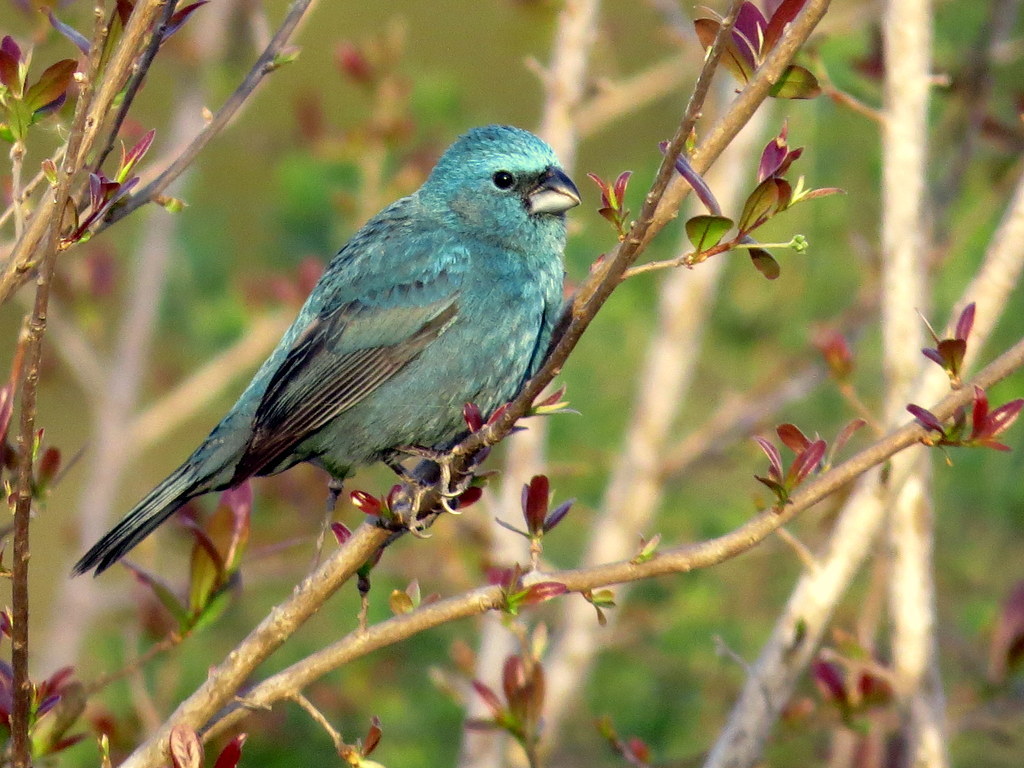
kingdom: Animalia
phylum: Chordata
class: Aves
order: Passeriformes
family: Cardinalidae
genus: Cyanoloxia
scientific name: Cyanoloxia glaucocaerulea
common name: Glaucous-blue grosbeak
